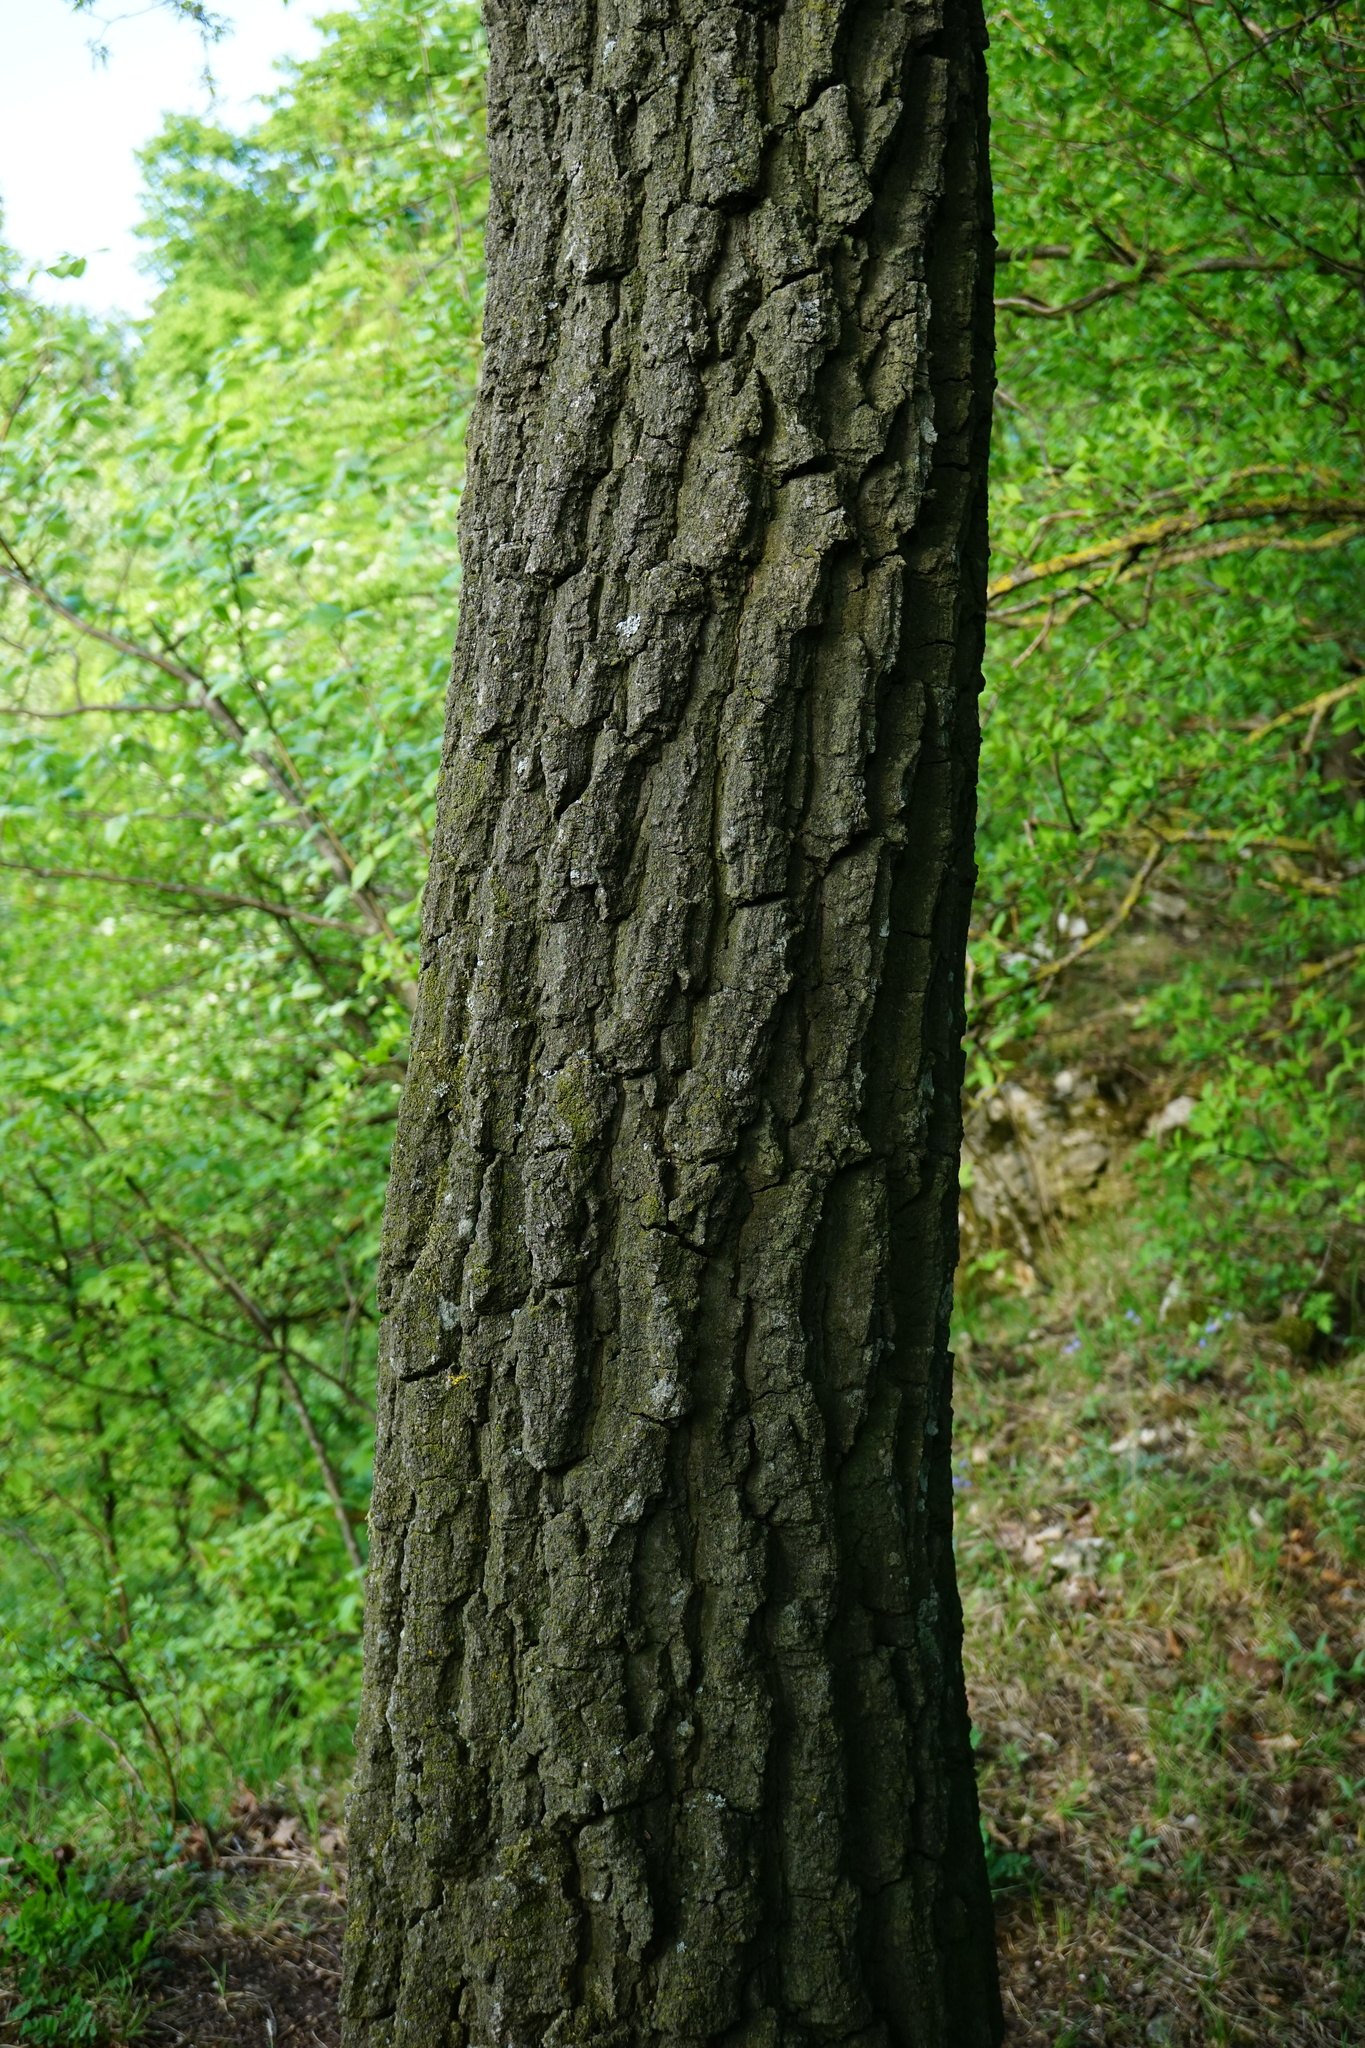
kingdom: Plantae
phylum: Tracheophyta
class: Magnoliopsida
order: Fagales
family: Fagaceae
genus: Quercus
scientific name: Quercus cerris
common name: Turkey oak
